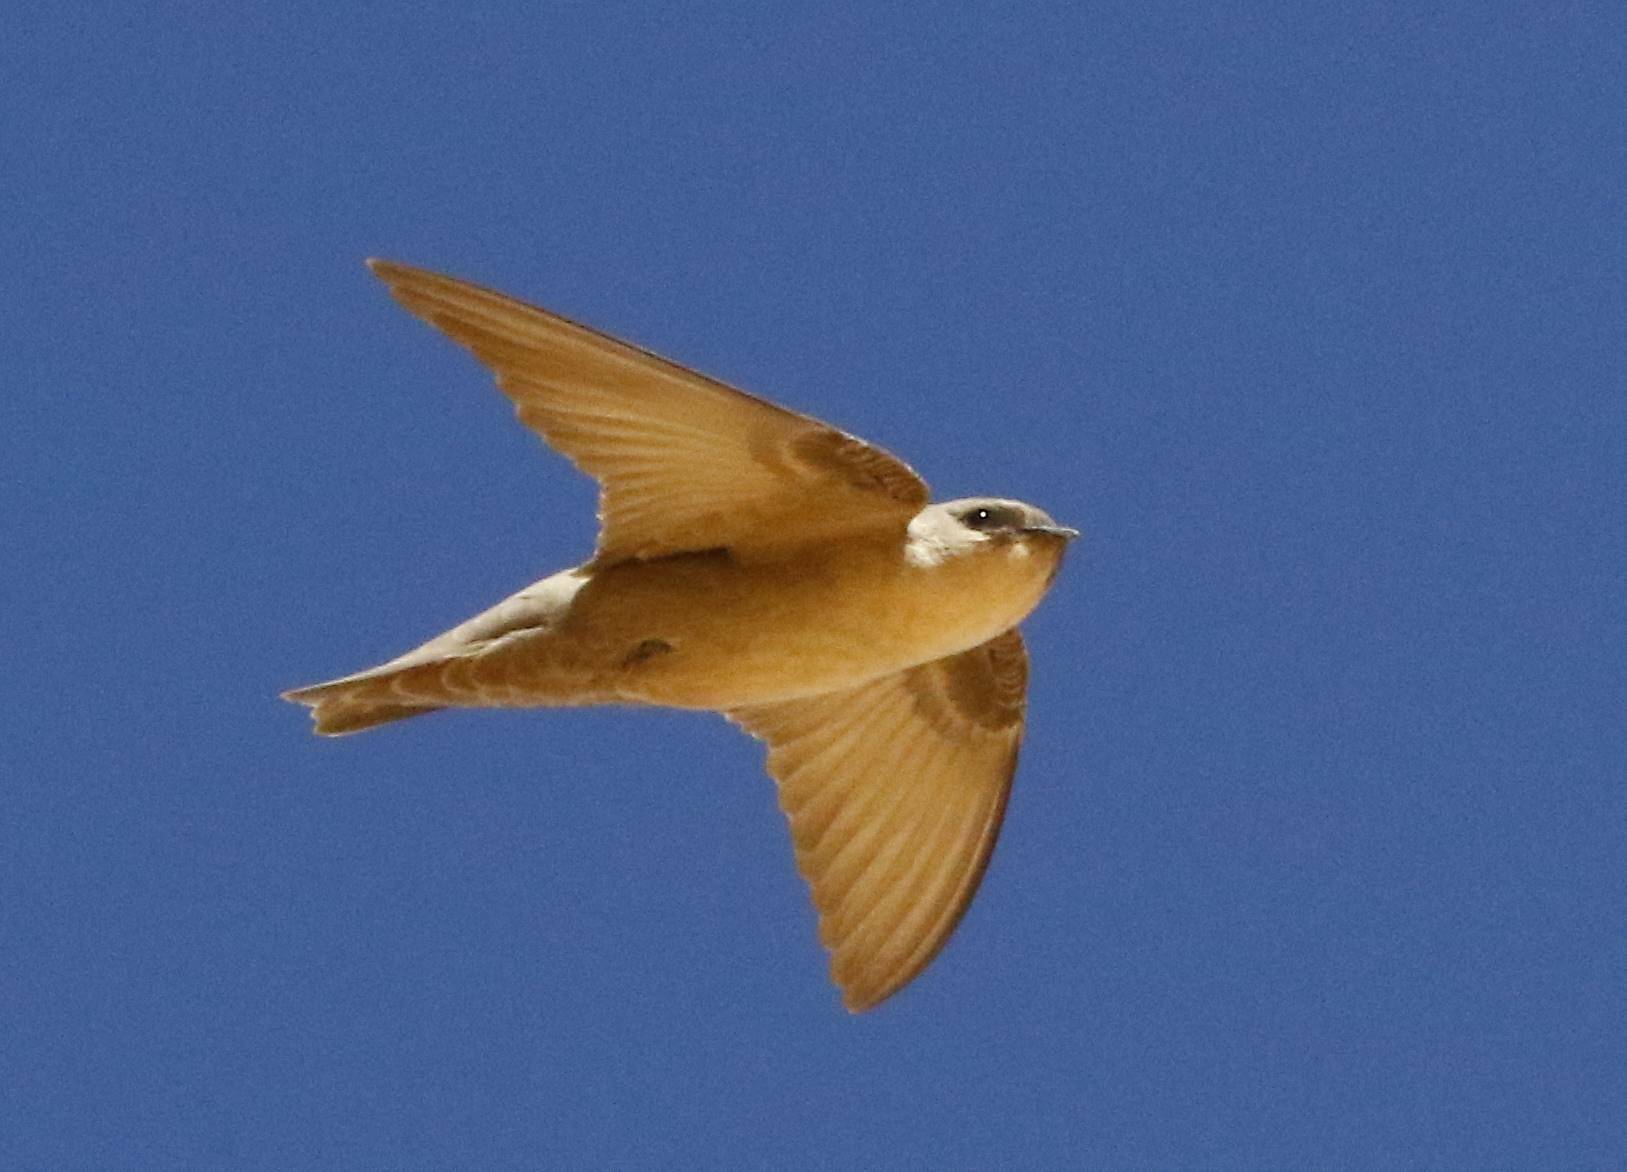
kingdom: Animalia
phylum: Chordata
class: Aves
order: Passeriformes
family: Hirundinidae
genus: Ptyonoprogne
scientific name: Ptyonoprogne fuligula
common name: Rock martin
